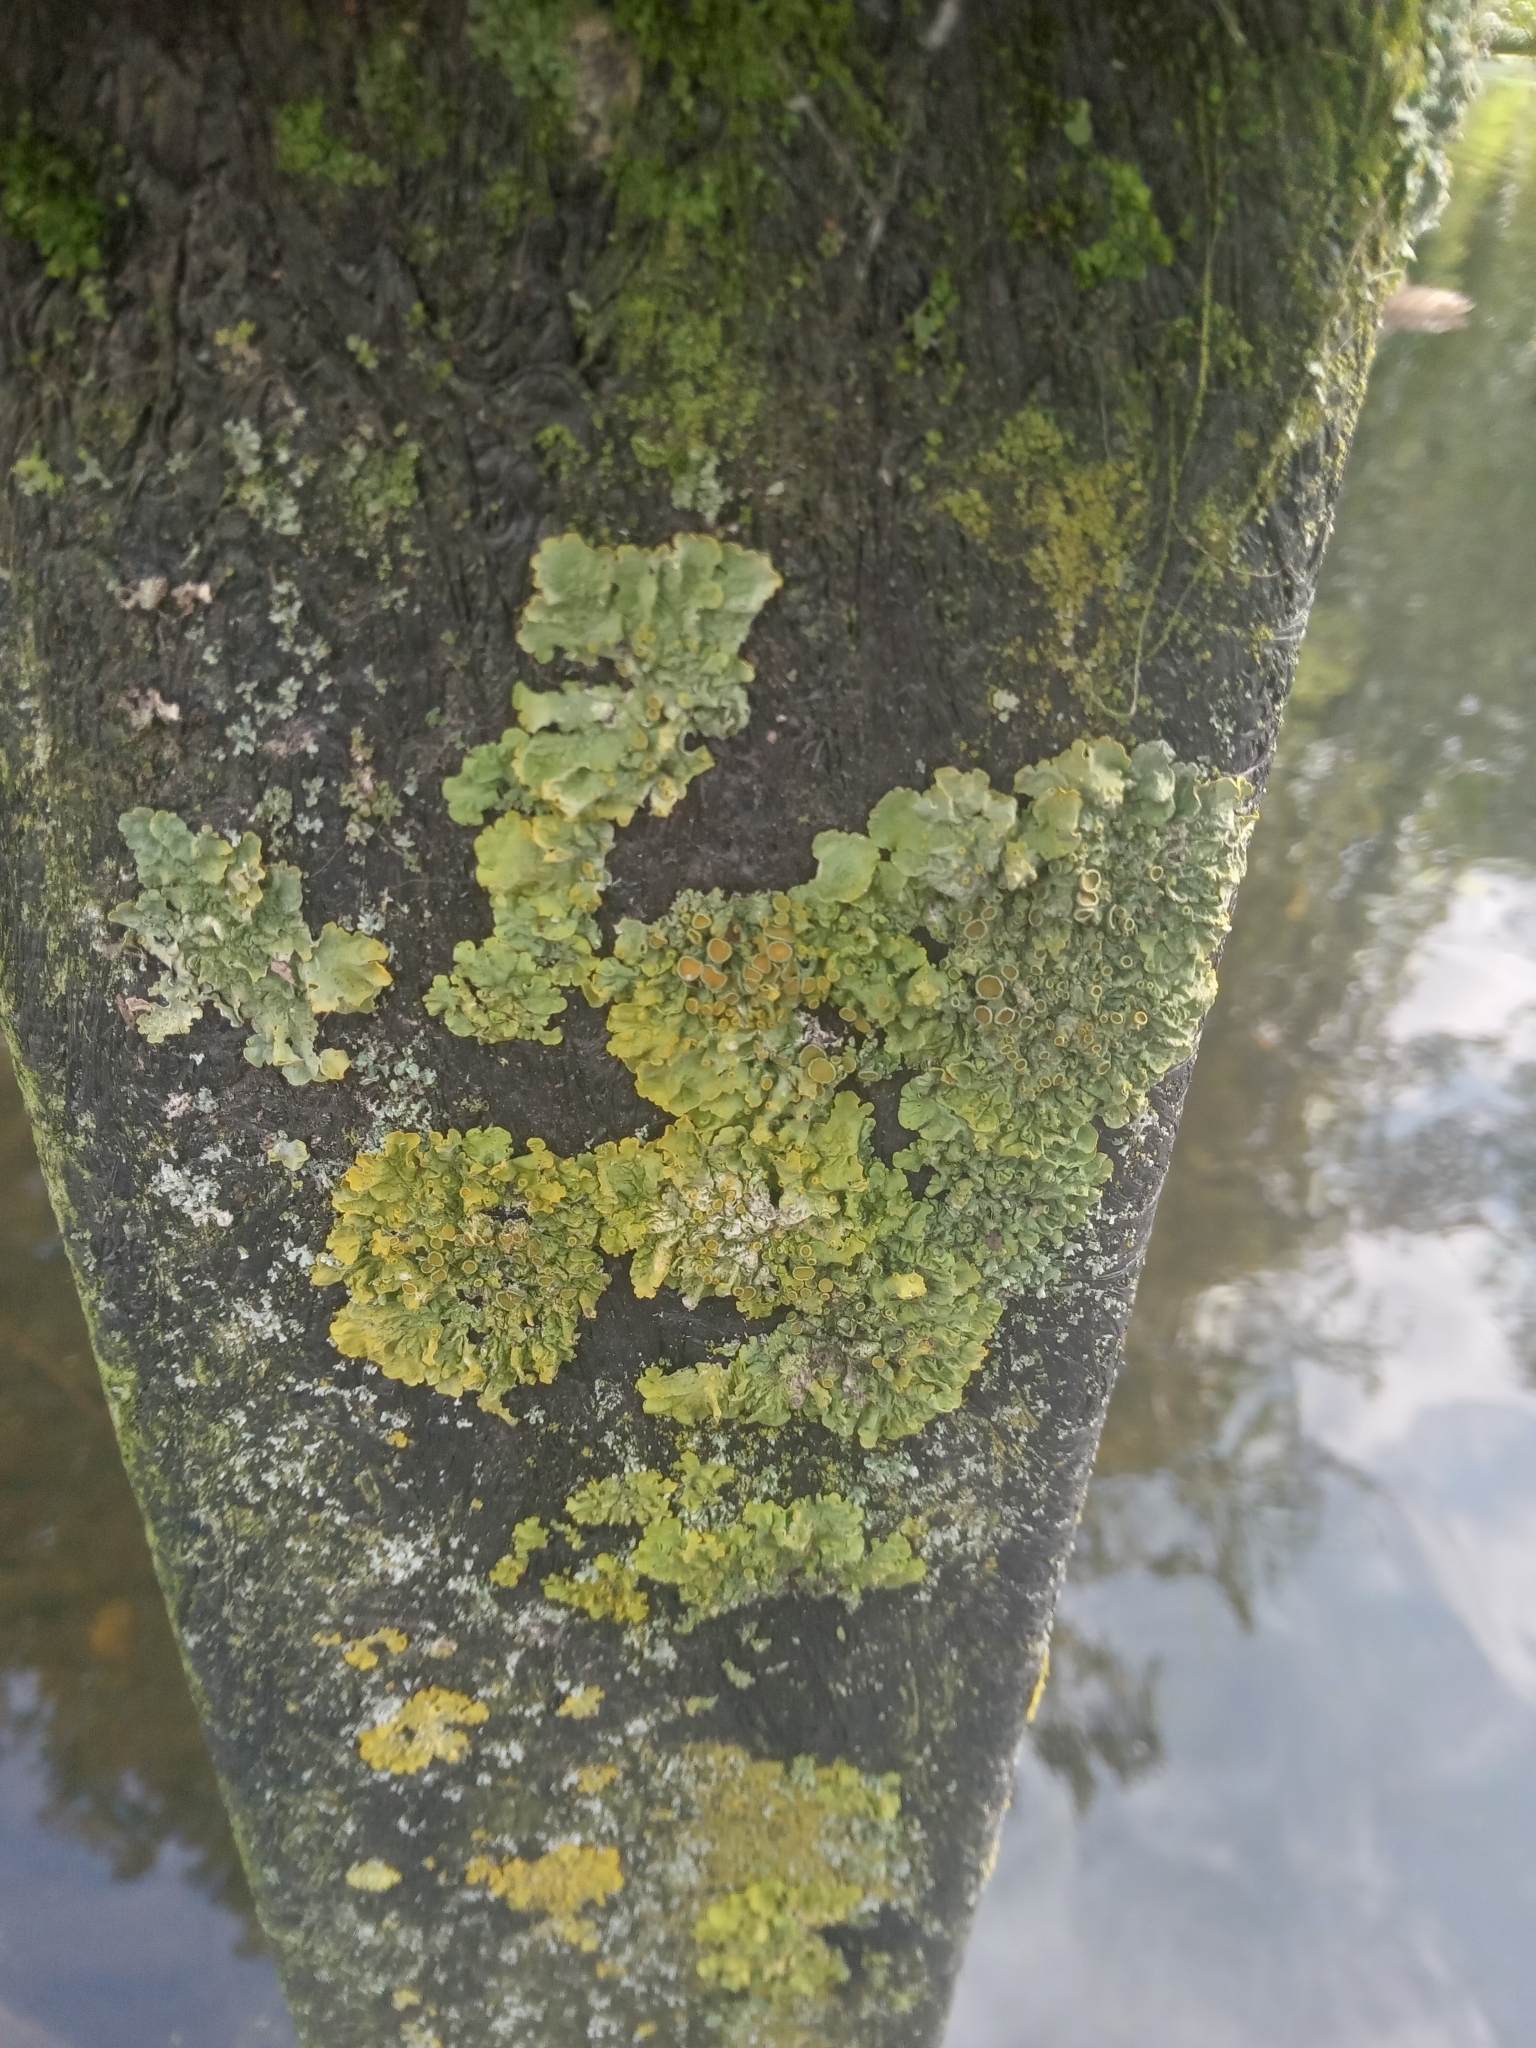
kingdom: Fungi
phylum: Ascomycota
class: Lecanoromycetes
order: Teloschistales
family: Teloschistaceae
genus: Xanthoria
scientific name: Xanthoria parietina
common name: Common orange lichen
